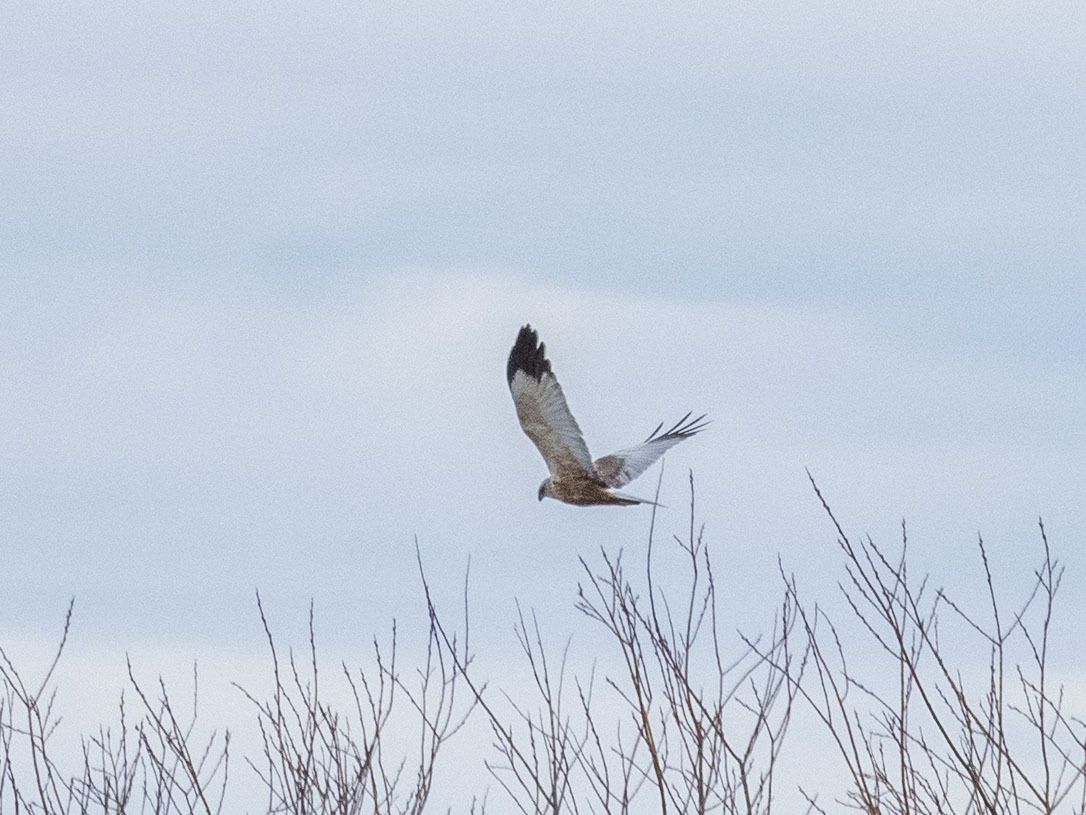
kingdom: Animalia
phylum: Chordata
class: Aves
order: Accipitriformes
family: Accipitridae
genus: Circus
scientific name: Circus aeruginosus
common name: Western marsh harrier
